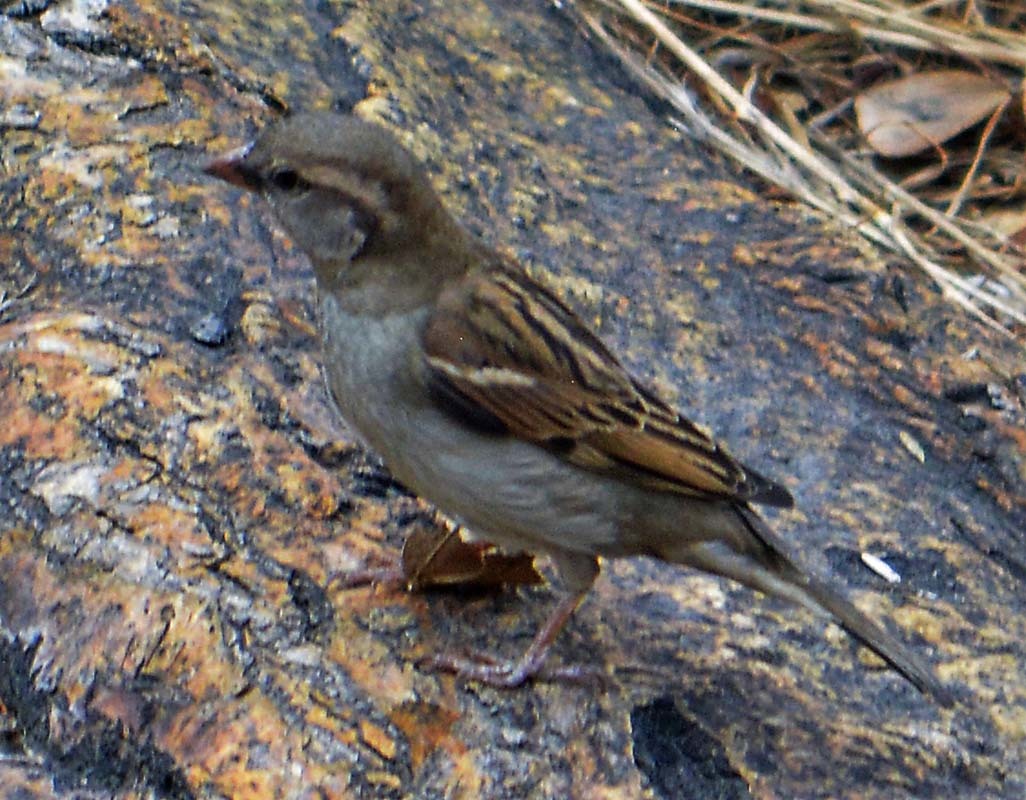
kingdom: Animalia
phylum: Chordata
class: Aves
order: Passeriformes
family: Passeridae
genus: Passer
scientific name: Passer domesticus
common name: House sparrow
